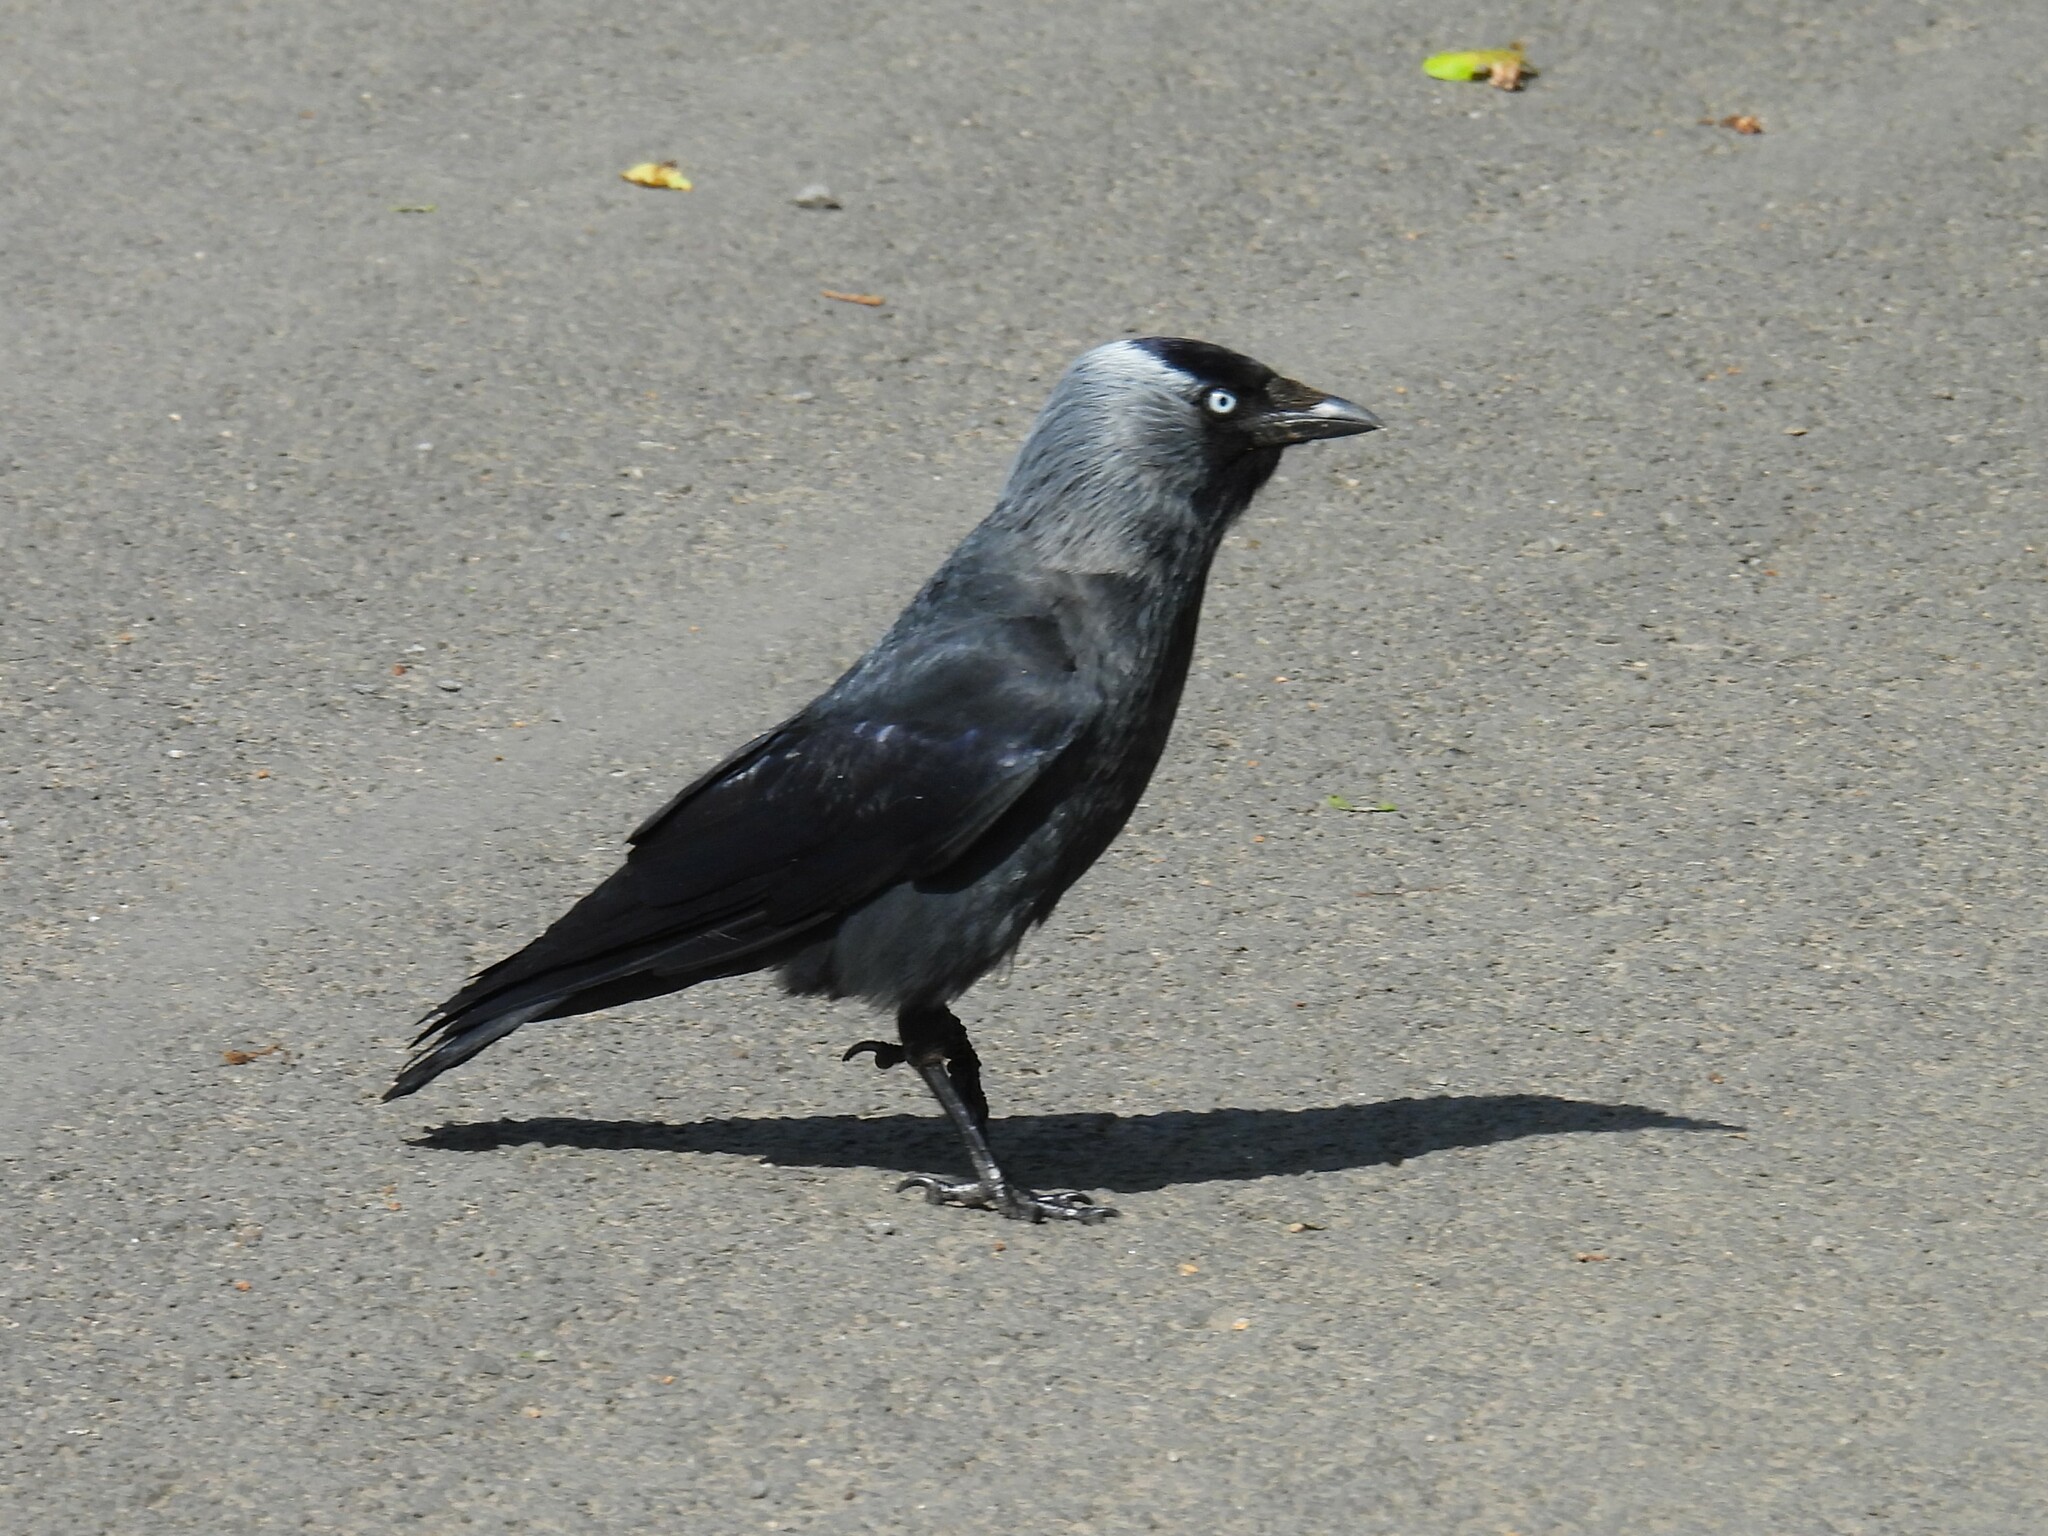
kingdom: Animalia
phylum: Chordata
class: Aves
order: Passeriformes
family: Corvidae
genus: Coloeus
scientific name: Coloeus monedula
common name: Western jackdaw
